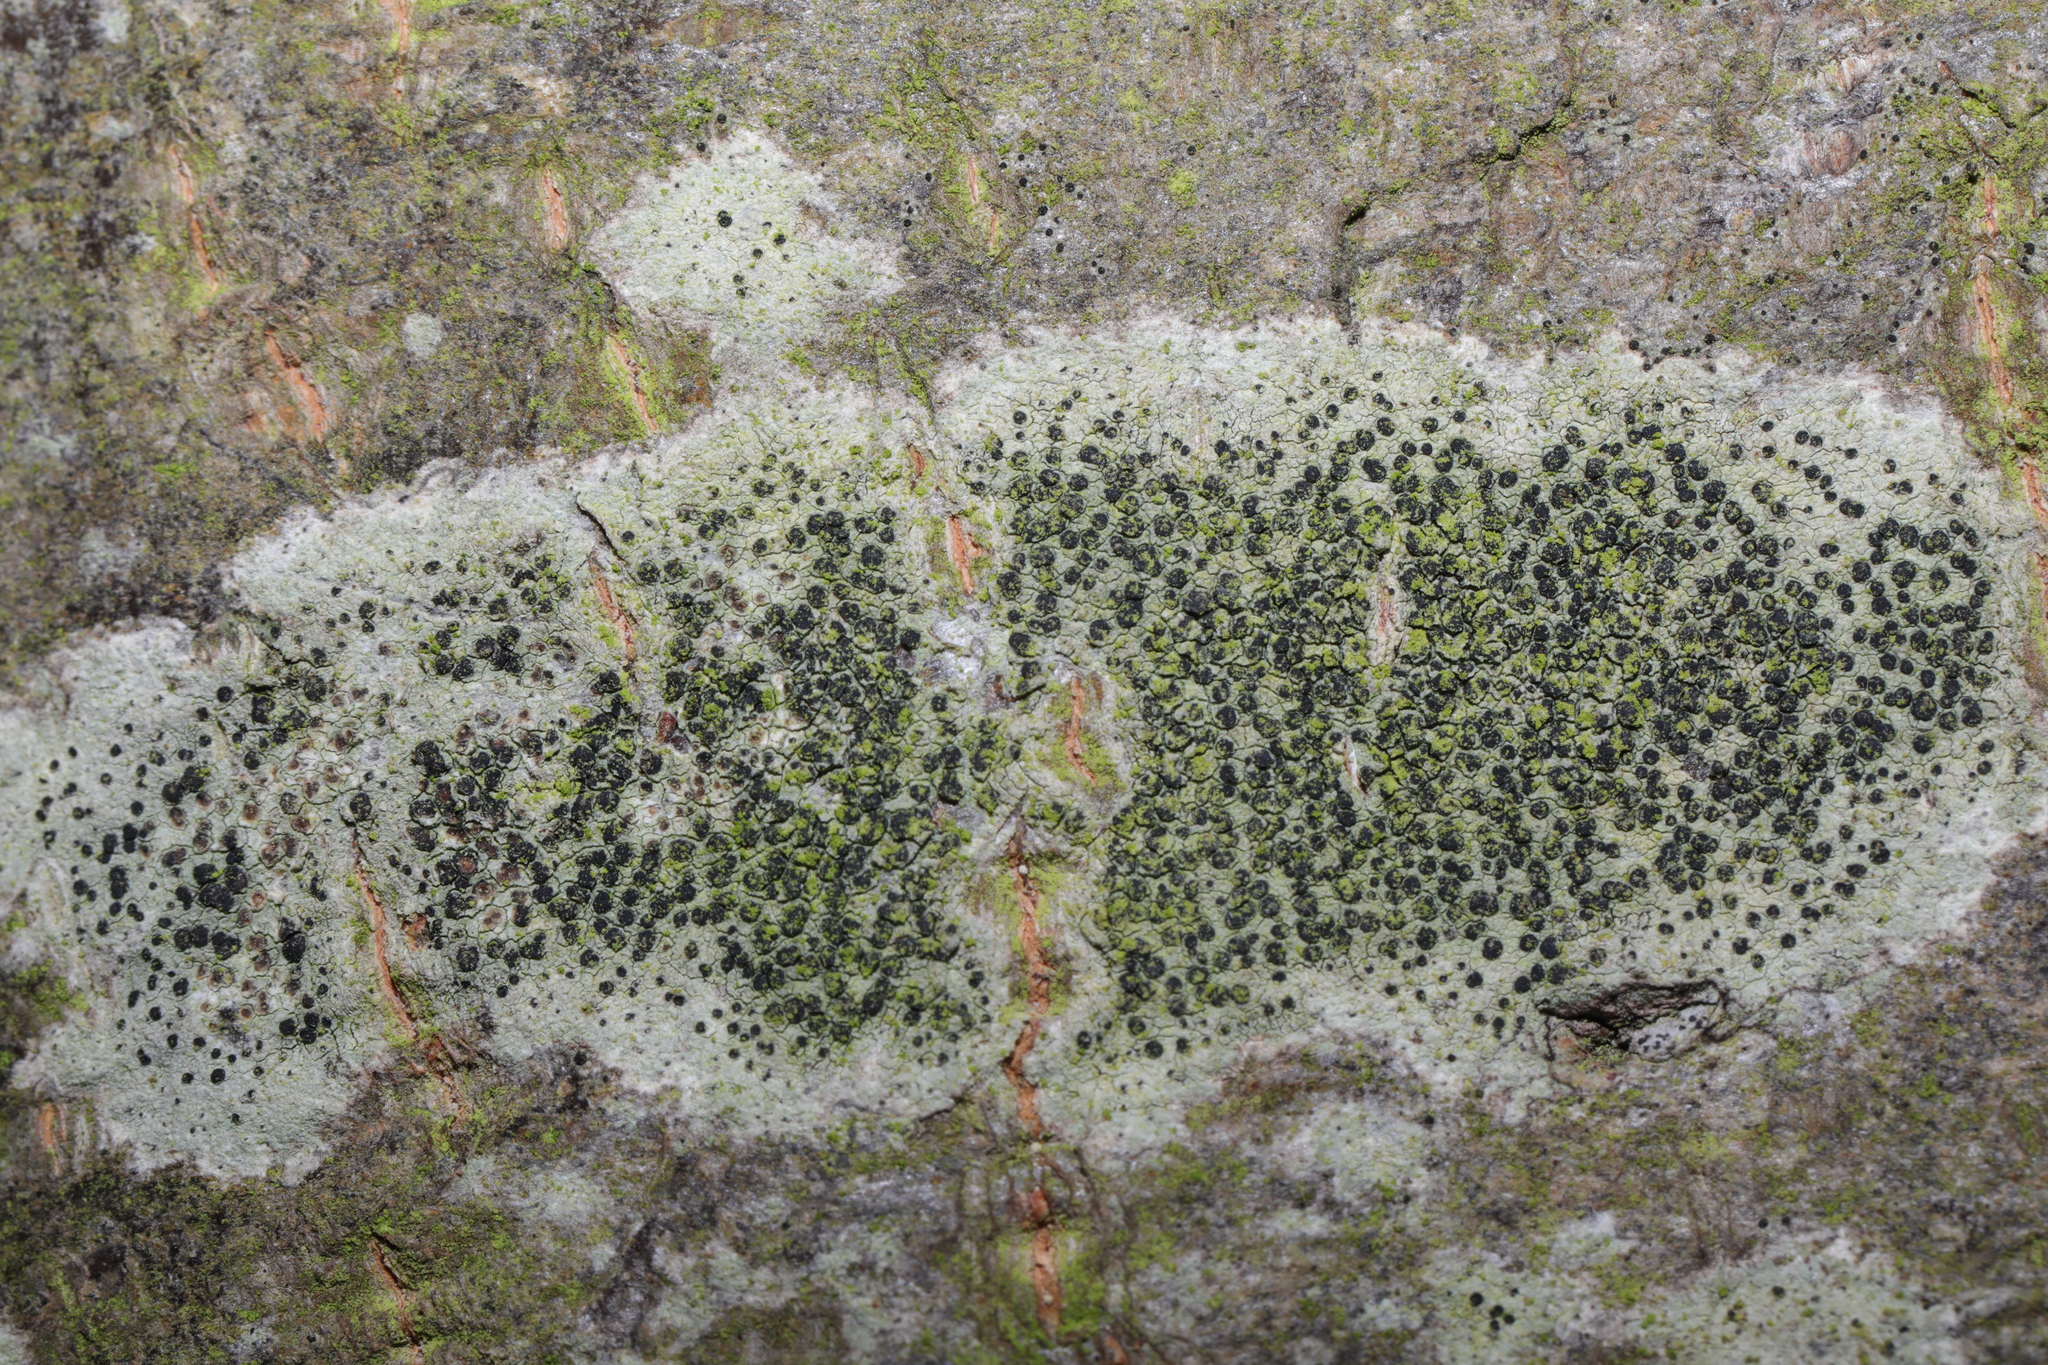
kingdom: Fungi
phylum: Ascomycota
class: Lecanoromycetes
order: Lecanorales
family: Lecanoraceae
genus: Lecidella
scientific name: Lecidella elaeochroma
